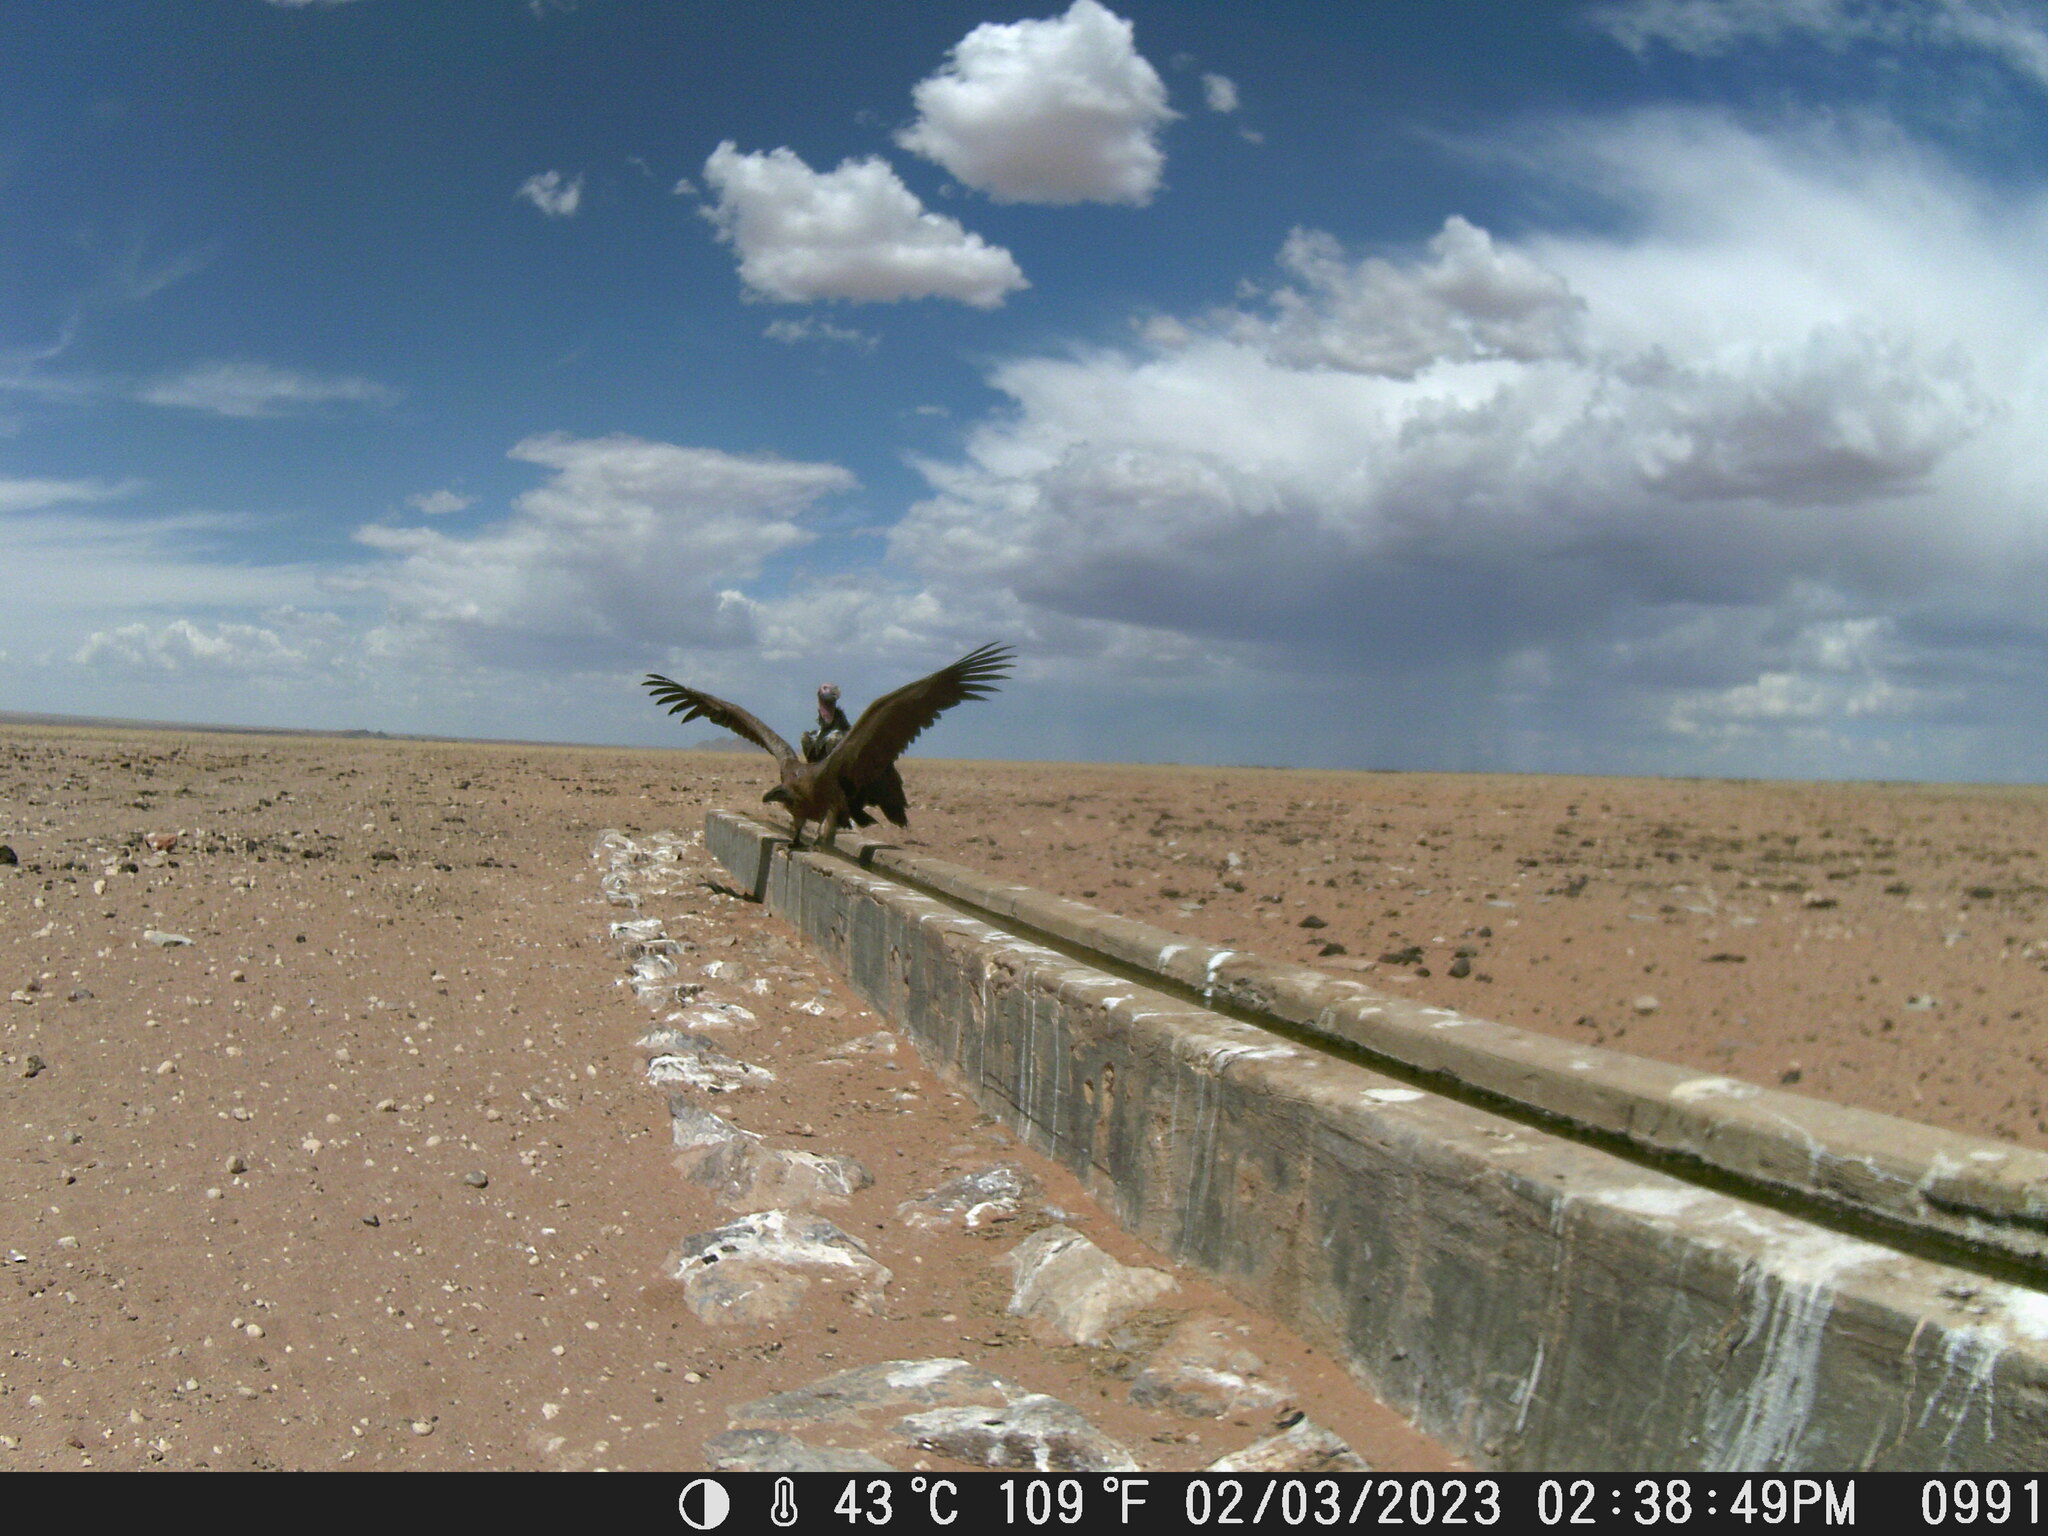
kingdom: Animalia
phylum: Chordata
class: Aves
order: Accipitriformes
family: Accipitridae
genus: Gyps
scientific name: Gyps africanus
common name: White-backed vulture
